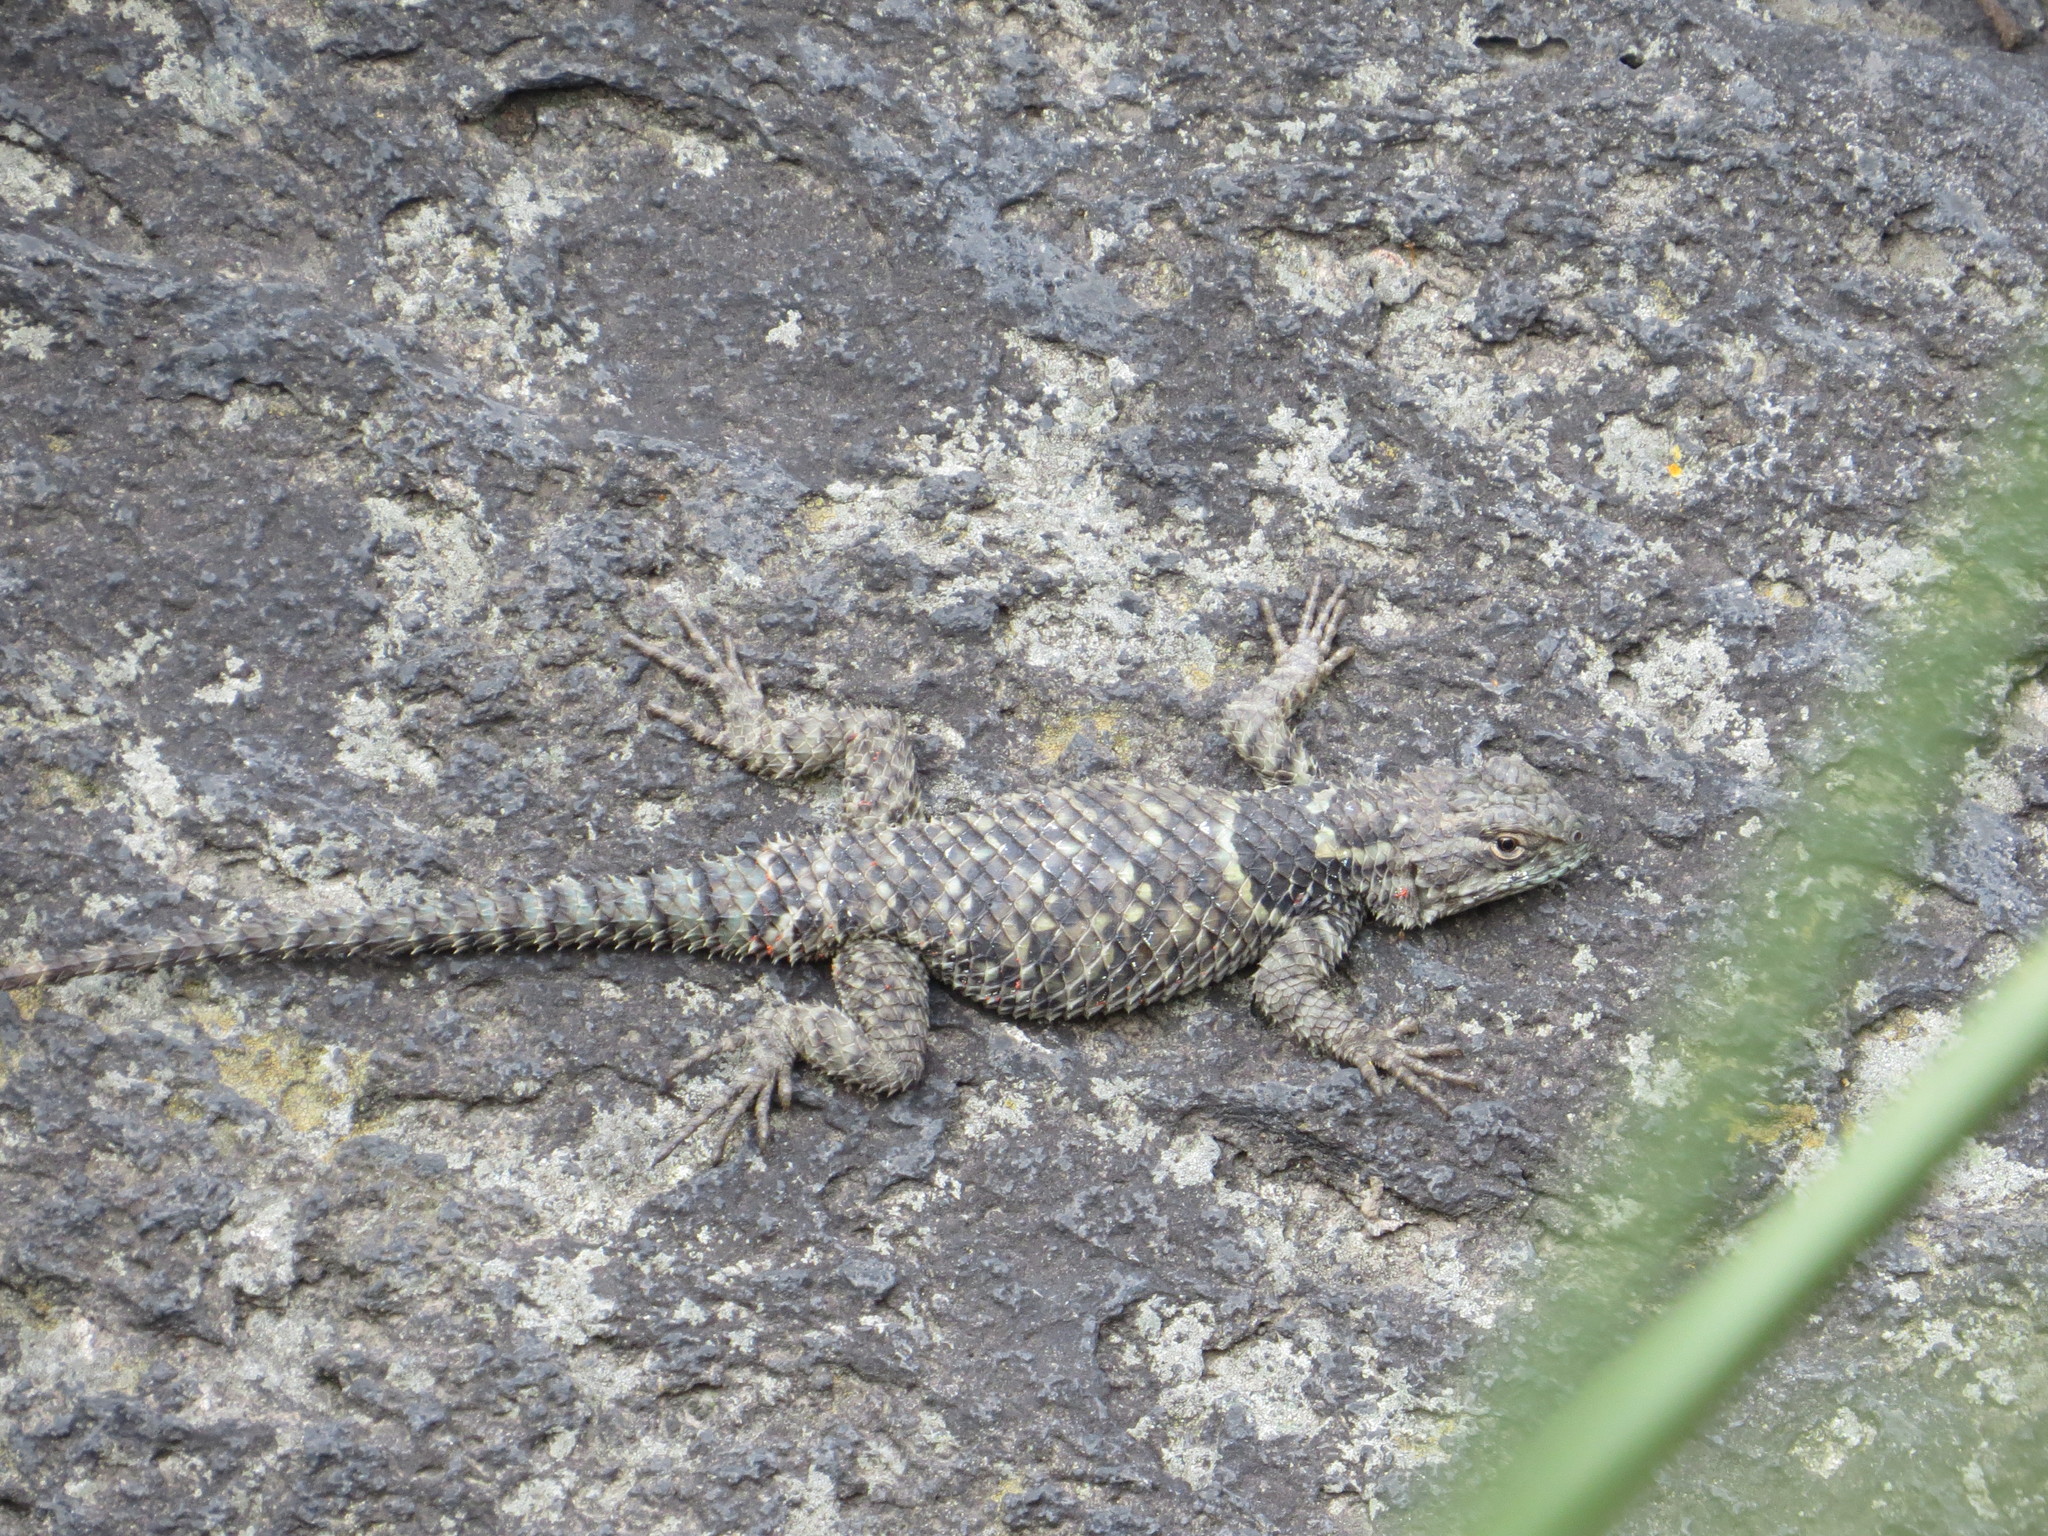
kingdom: Animalia
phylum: Chordata
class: Squamata
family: Phrynosomatidae
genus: Sceloporus
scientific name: Sceloporus torquatus
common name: Central plateau torquate lizard [melanogaster]
